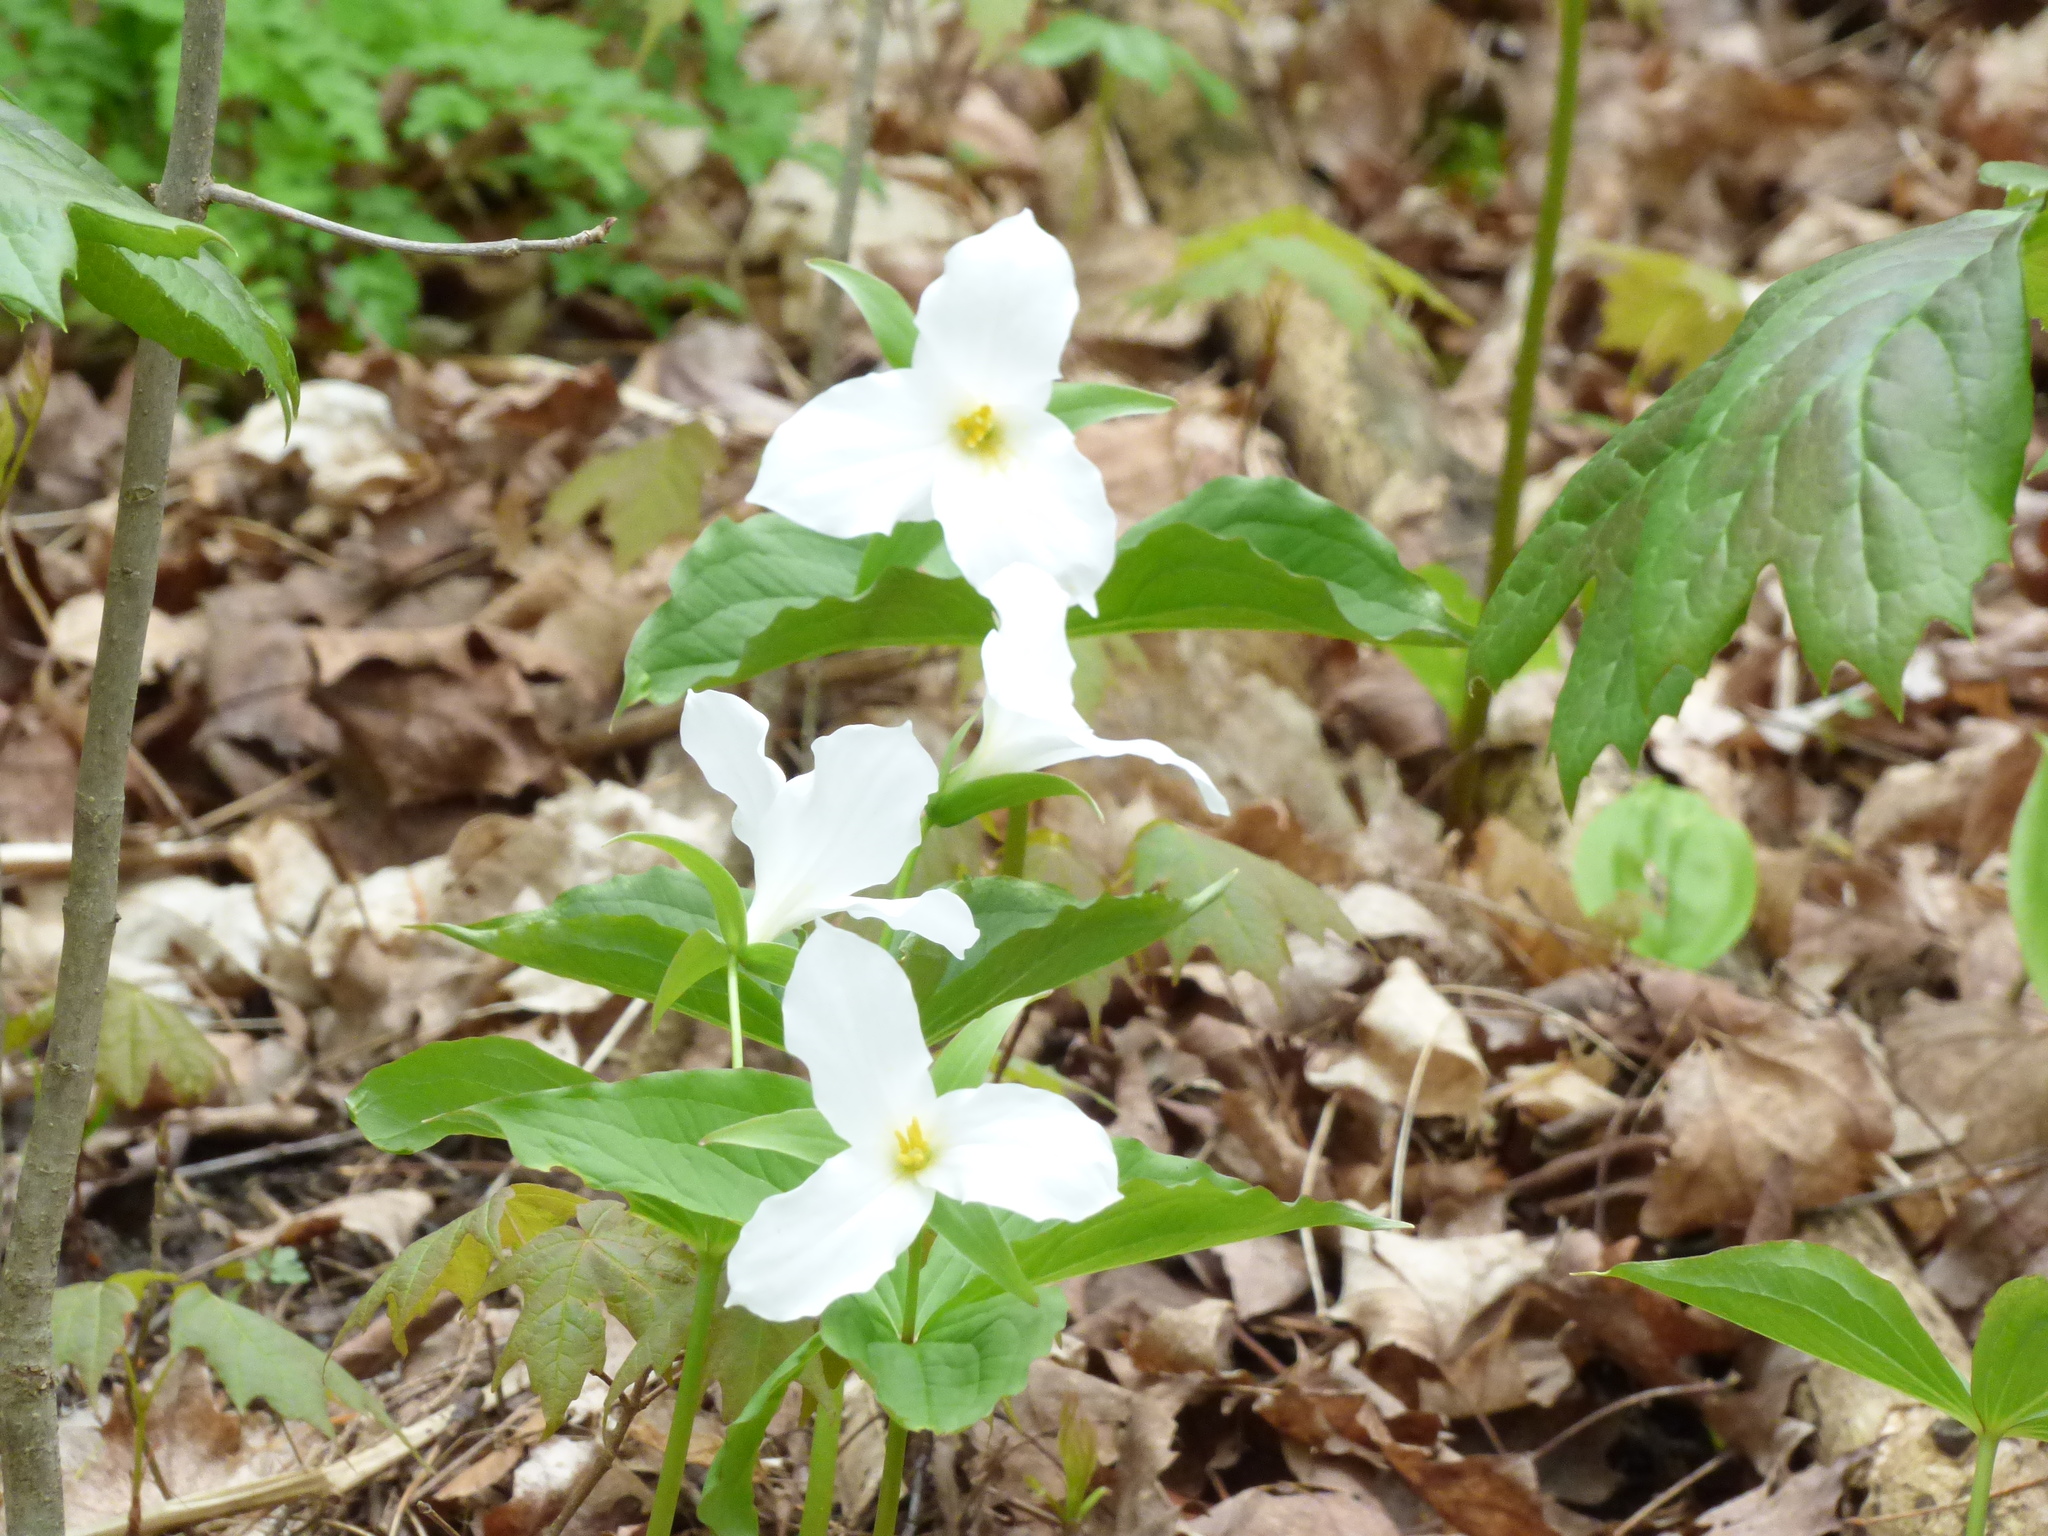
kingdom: Plantae
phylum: Tracheophyta
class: Liliopsida
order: Liliales
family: Melanthiaceae
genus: Trillium
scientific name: Trillium grandiflorum
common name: Great white trillium
